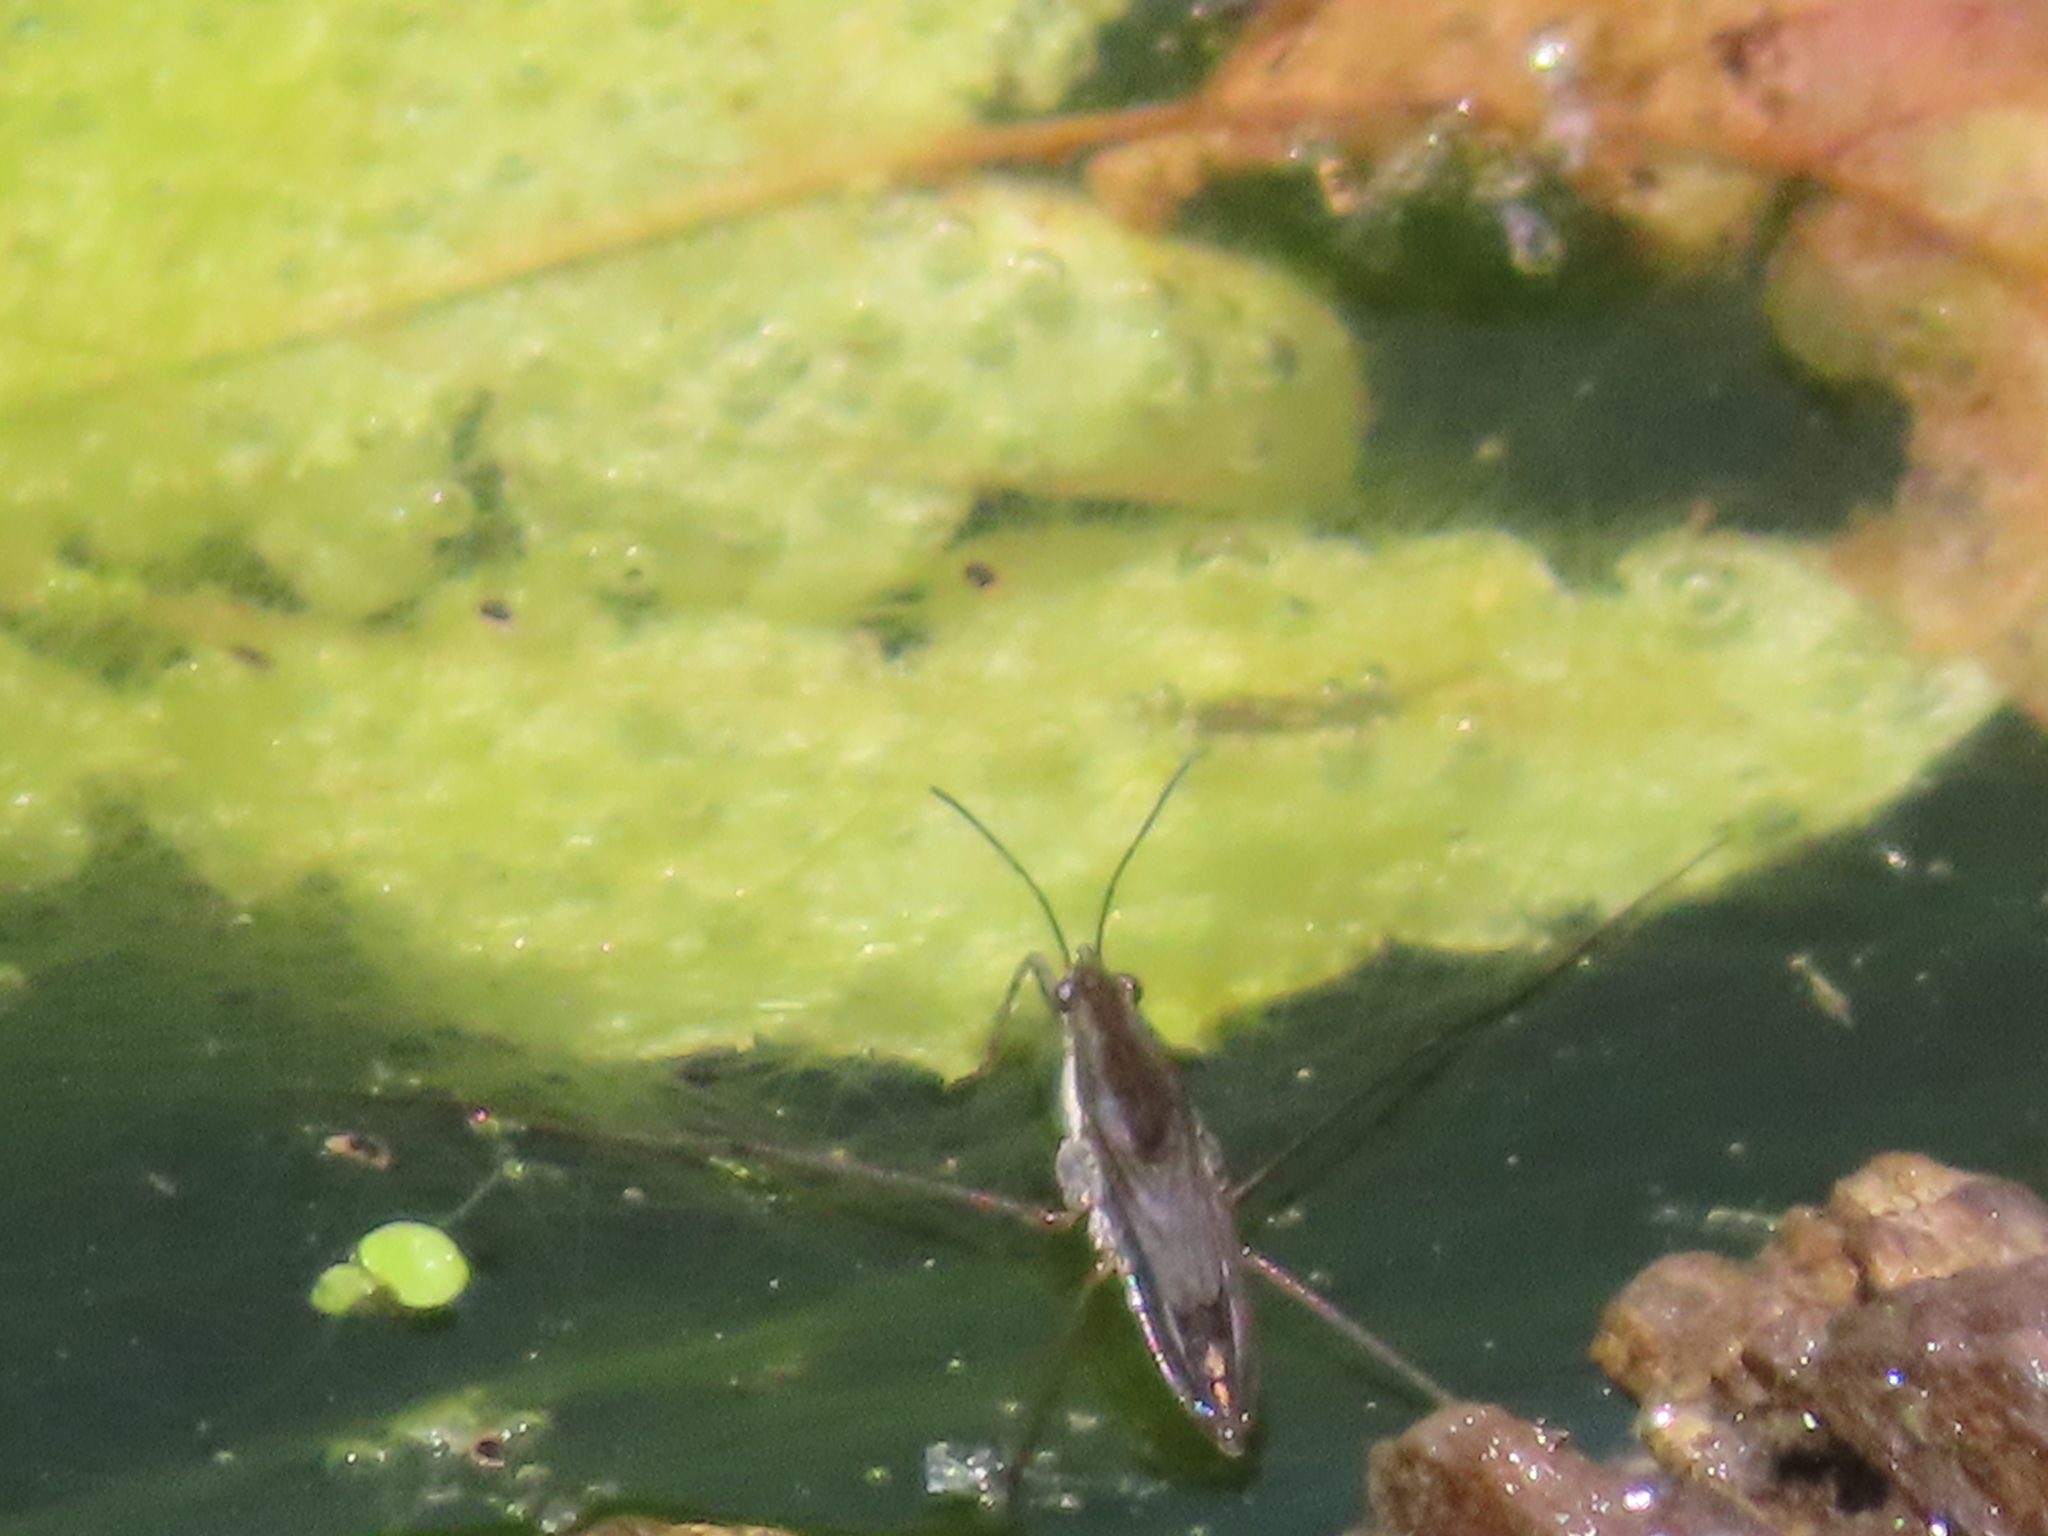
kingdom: Animalia
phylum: Arthropoda
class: Insecta
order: Hemiptera
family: Gerridae
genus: Gerris
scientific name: Gerris
